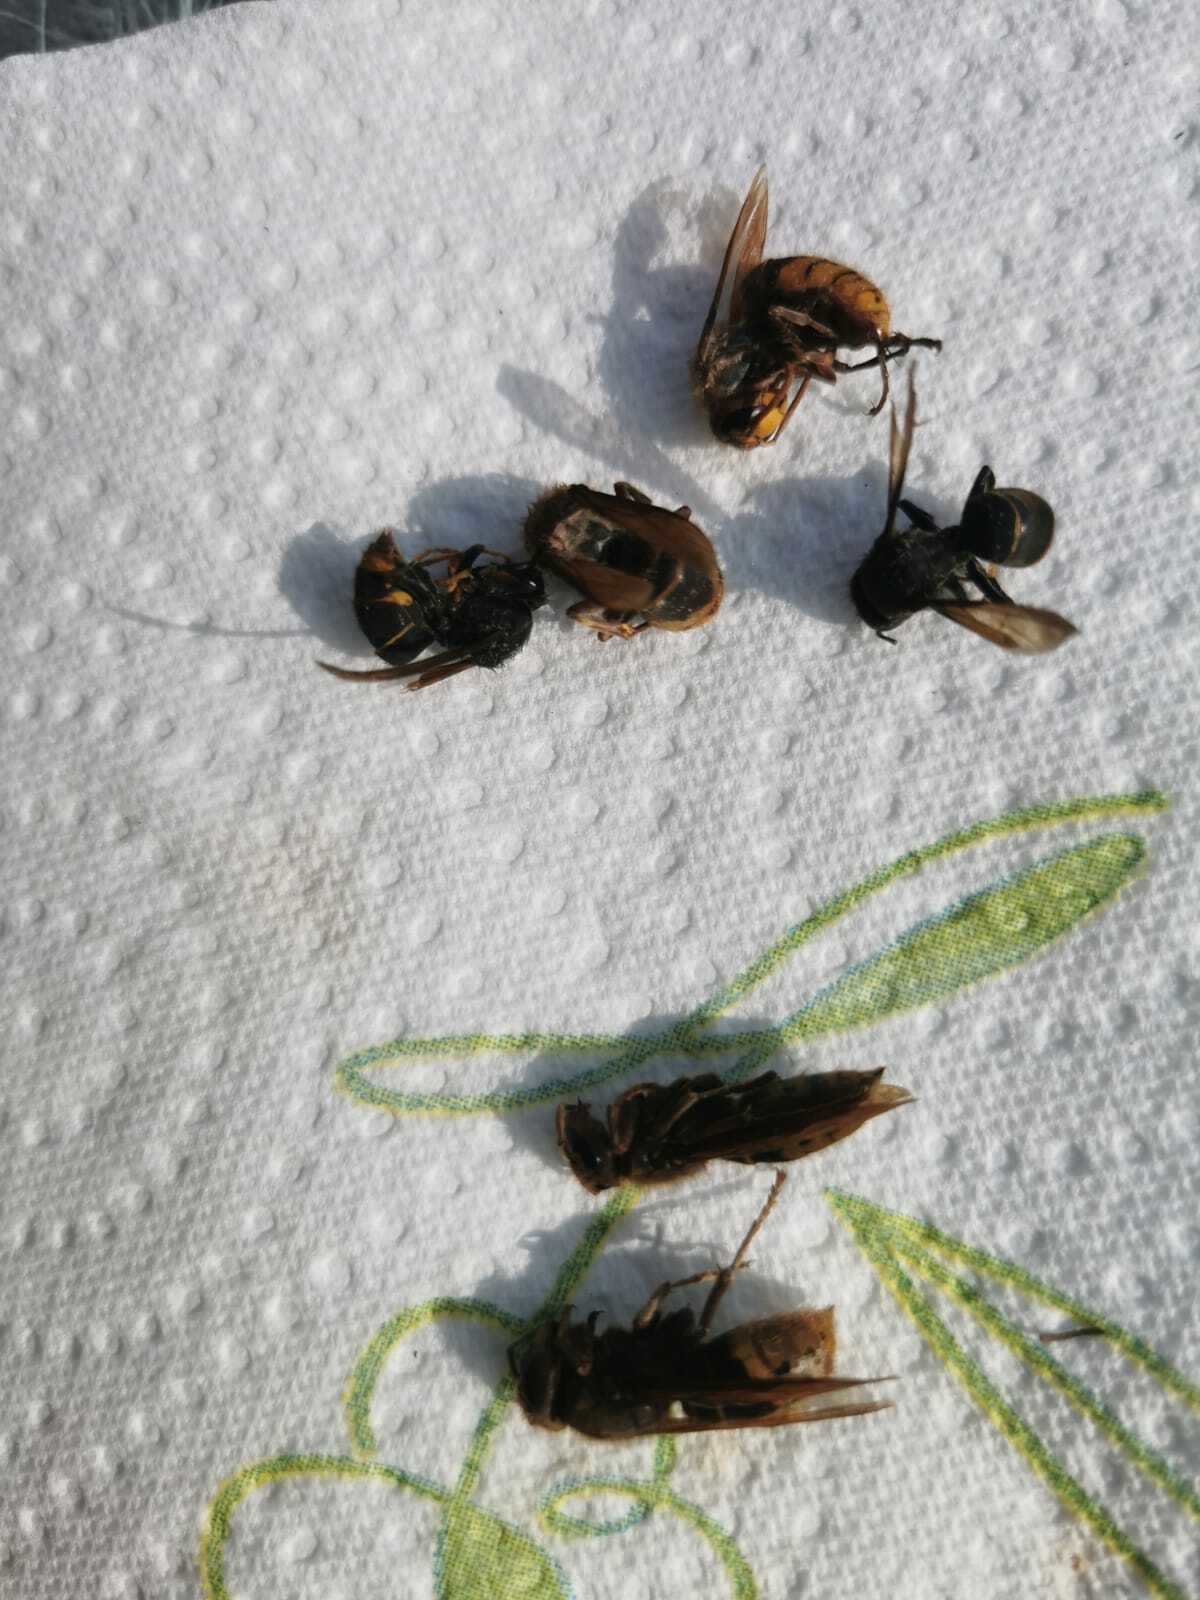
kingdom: Animalia
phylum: Arthropoda
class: Insecta
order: Hymenoptera
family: Vespidae
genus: Vespa
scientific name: Vespa velutina
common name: Asian hornet
